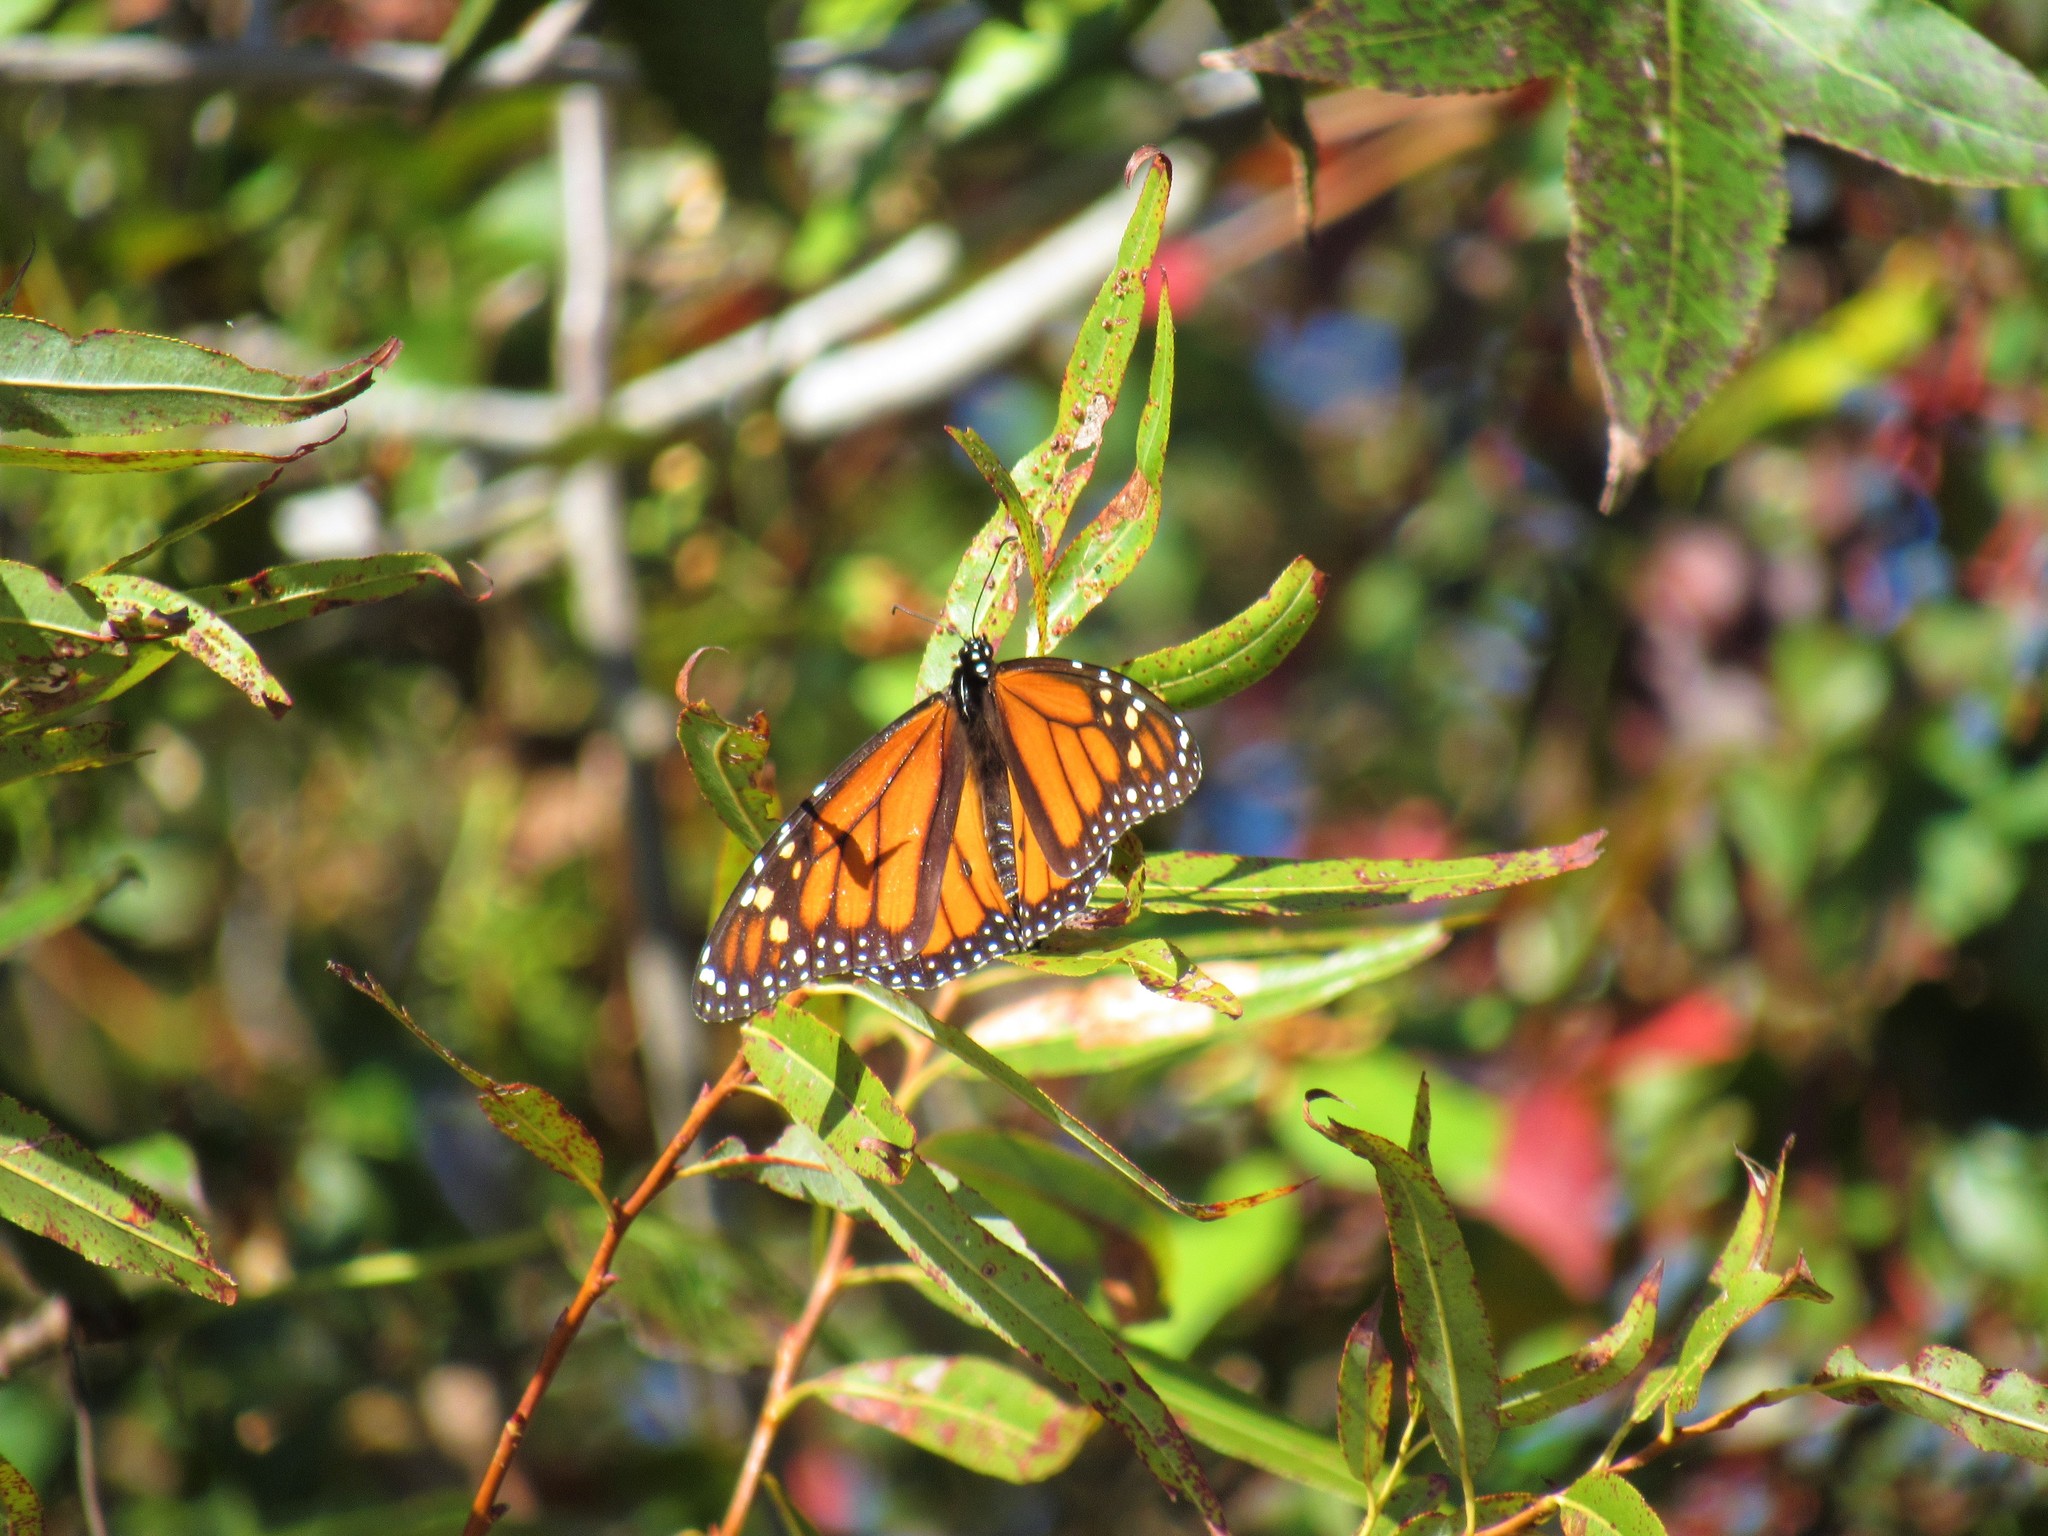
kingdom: Animalia
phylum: Arthropoda
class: Insecta
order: Lepidoptera
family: Nymphalidae
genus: Danaus
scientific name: Danaus plexippus
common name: Monarch
